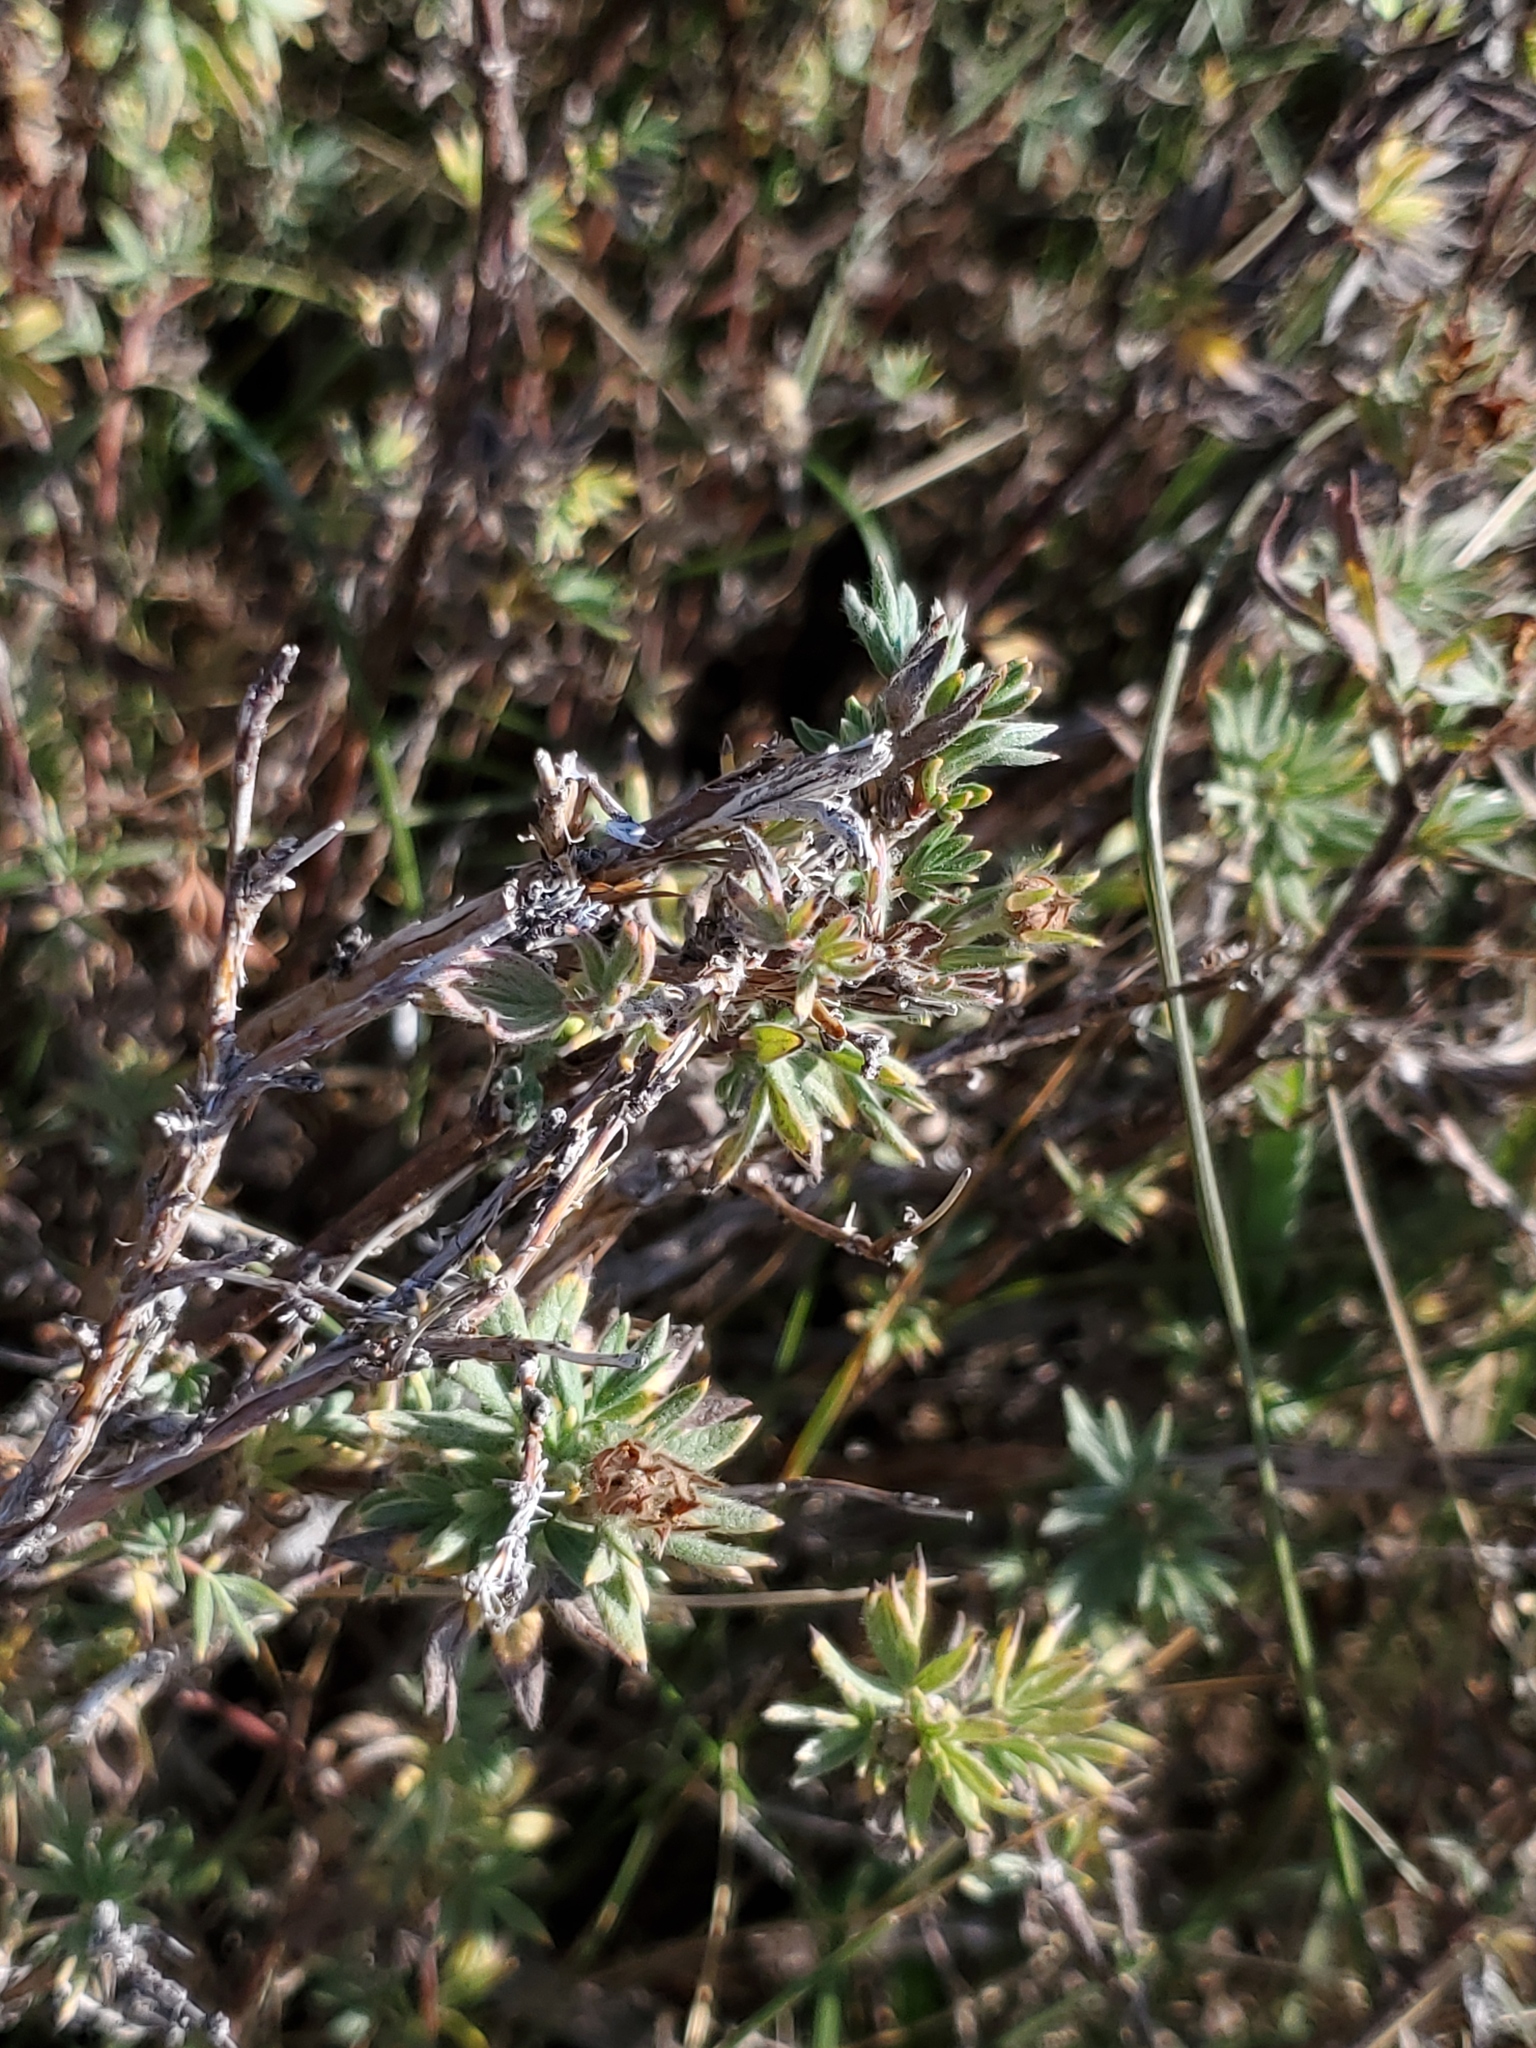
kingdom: Plantae
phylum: Tracheophyta
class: Magnoliopsida
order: Rosales
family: Rosaceae
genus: Dasiphora
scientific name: Dasiphora fruticosa
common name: Shrubby cinquefoil
